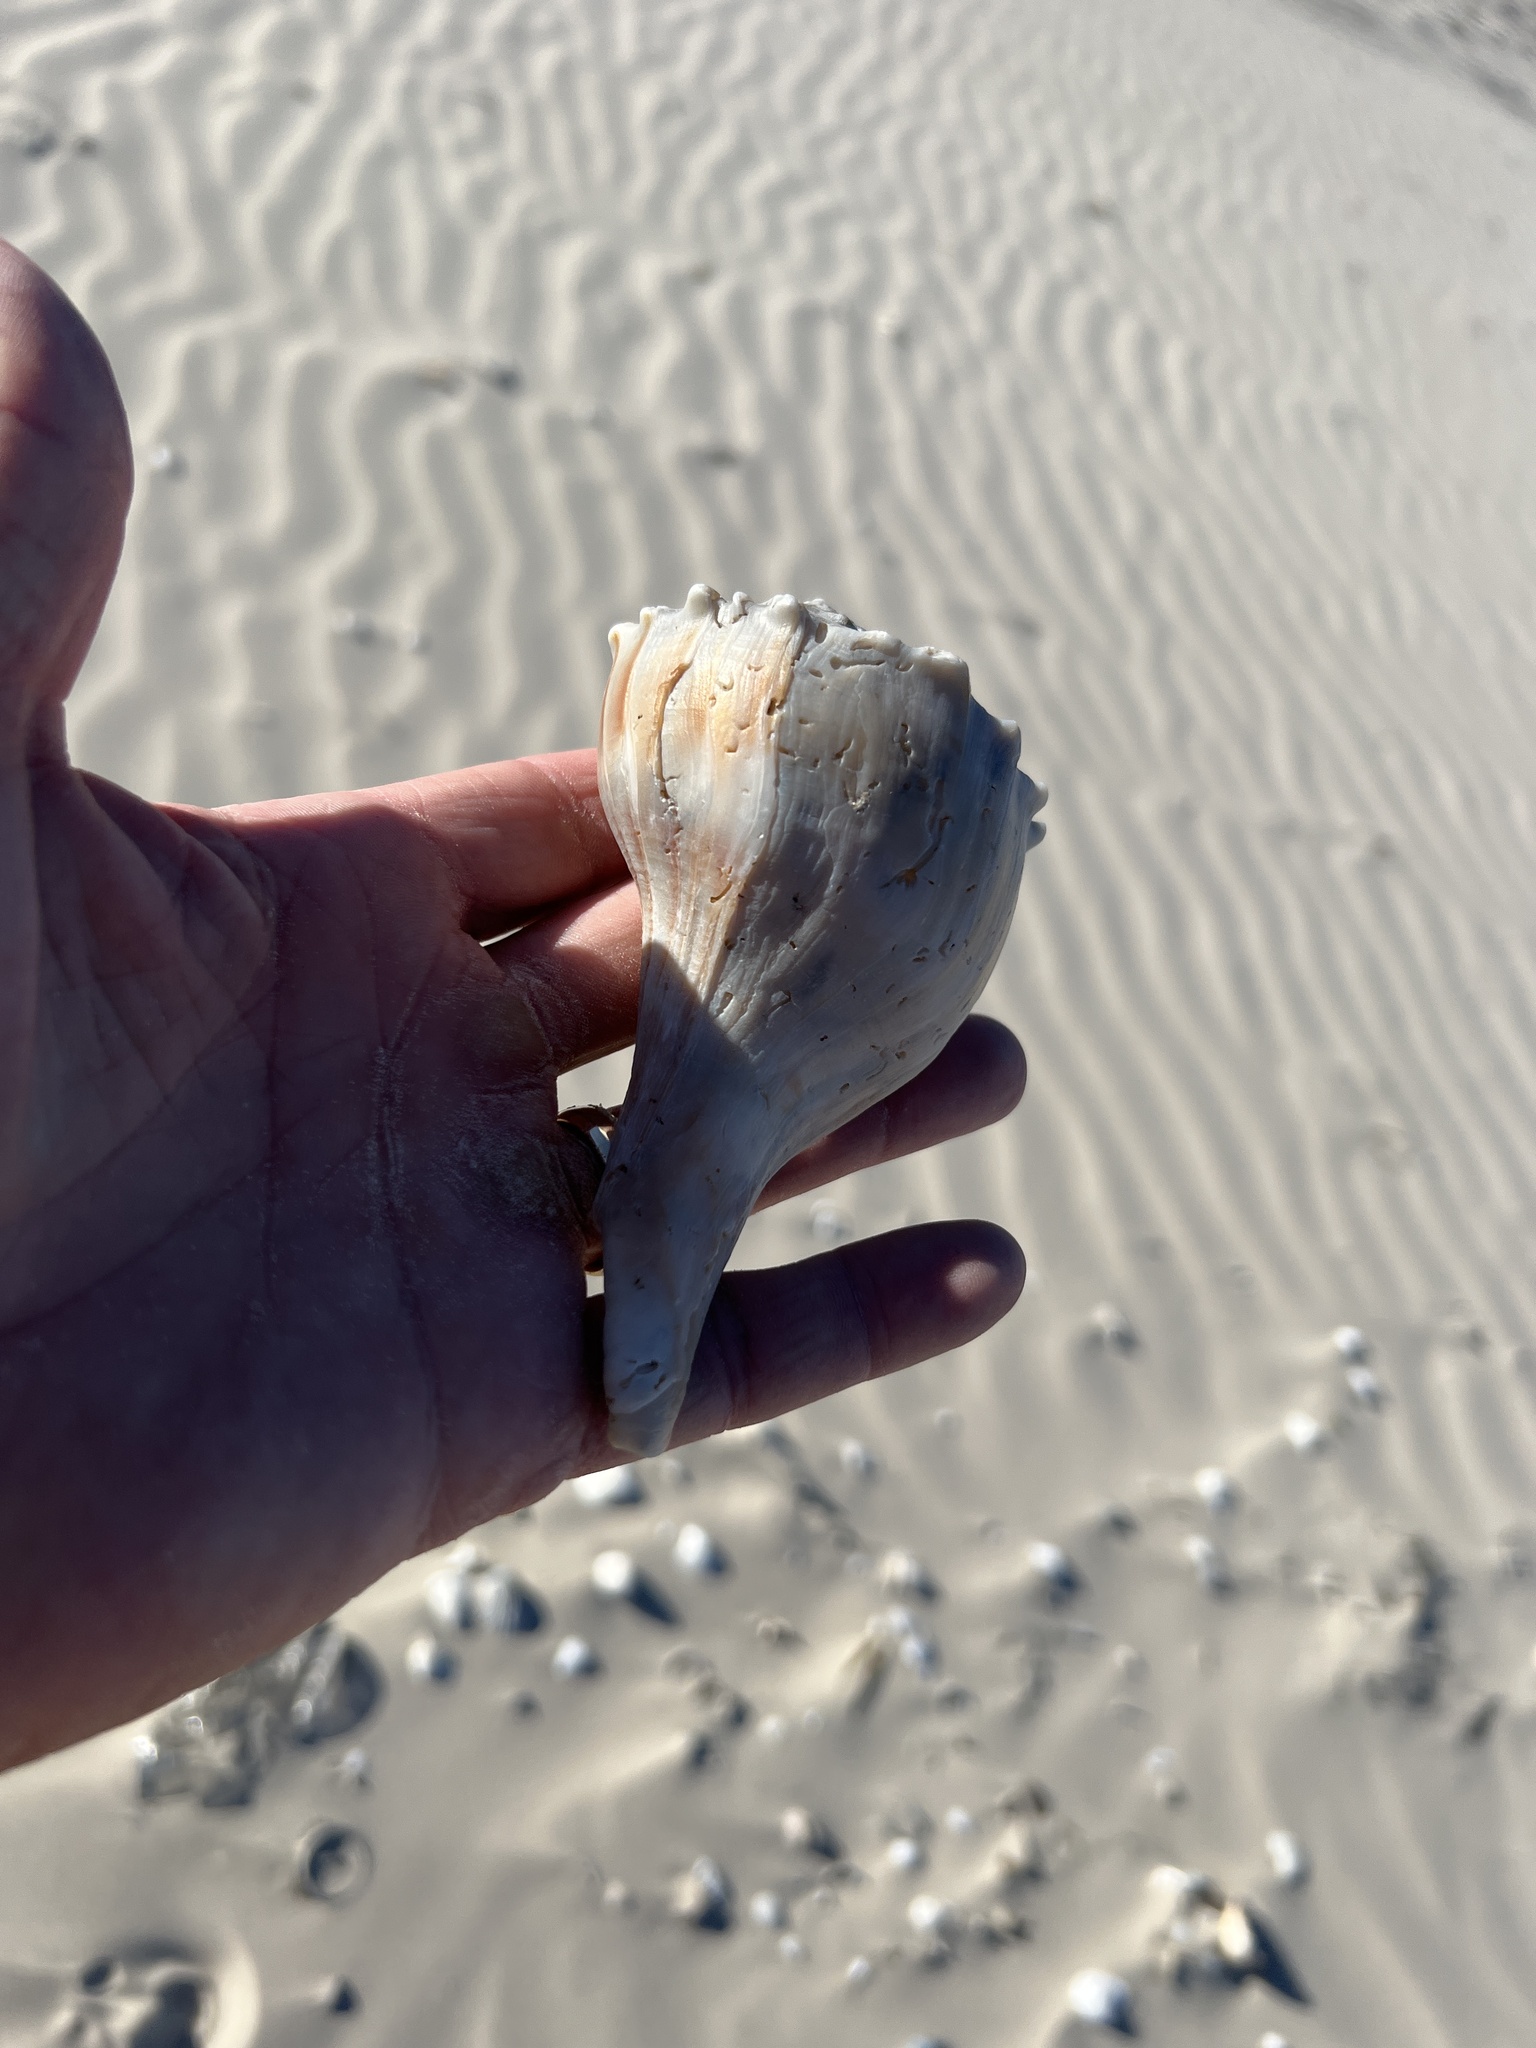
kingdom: Animalia
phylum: Mollusca
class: Gastropoda
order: Neogastropoda
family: Busyconidae
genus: Sinistrofulgur
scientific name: Sinistrofulgur pulleyi
